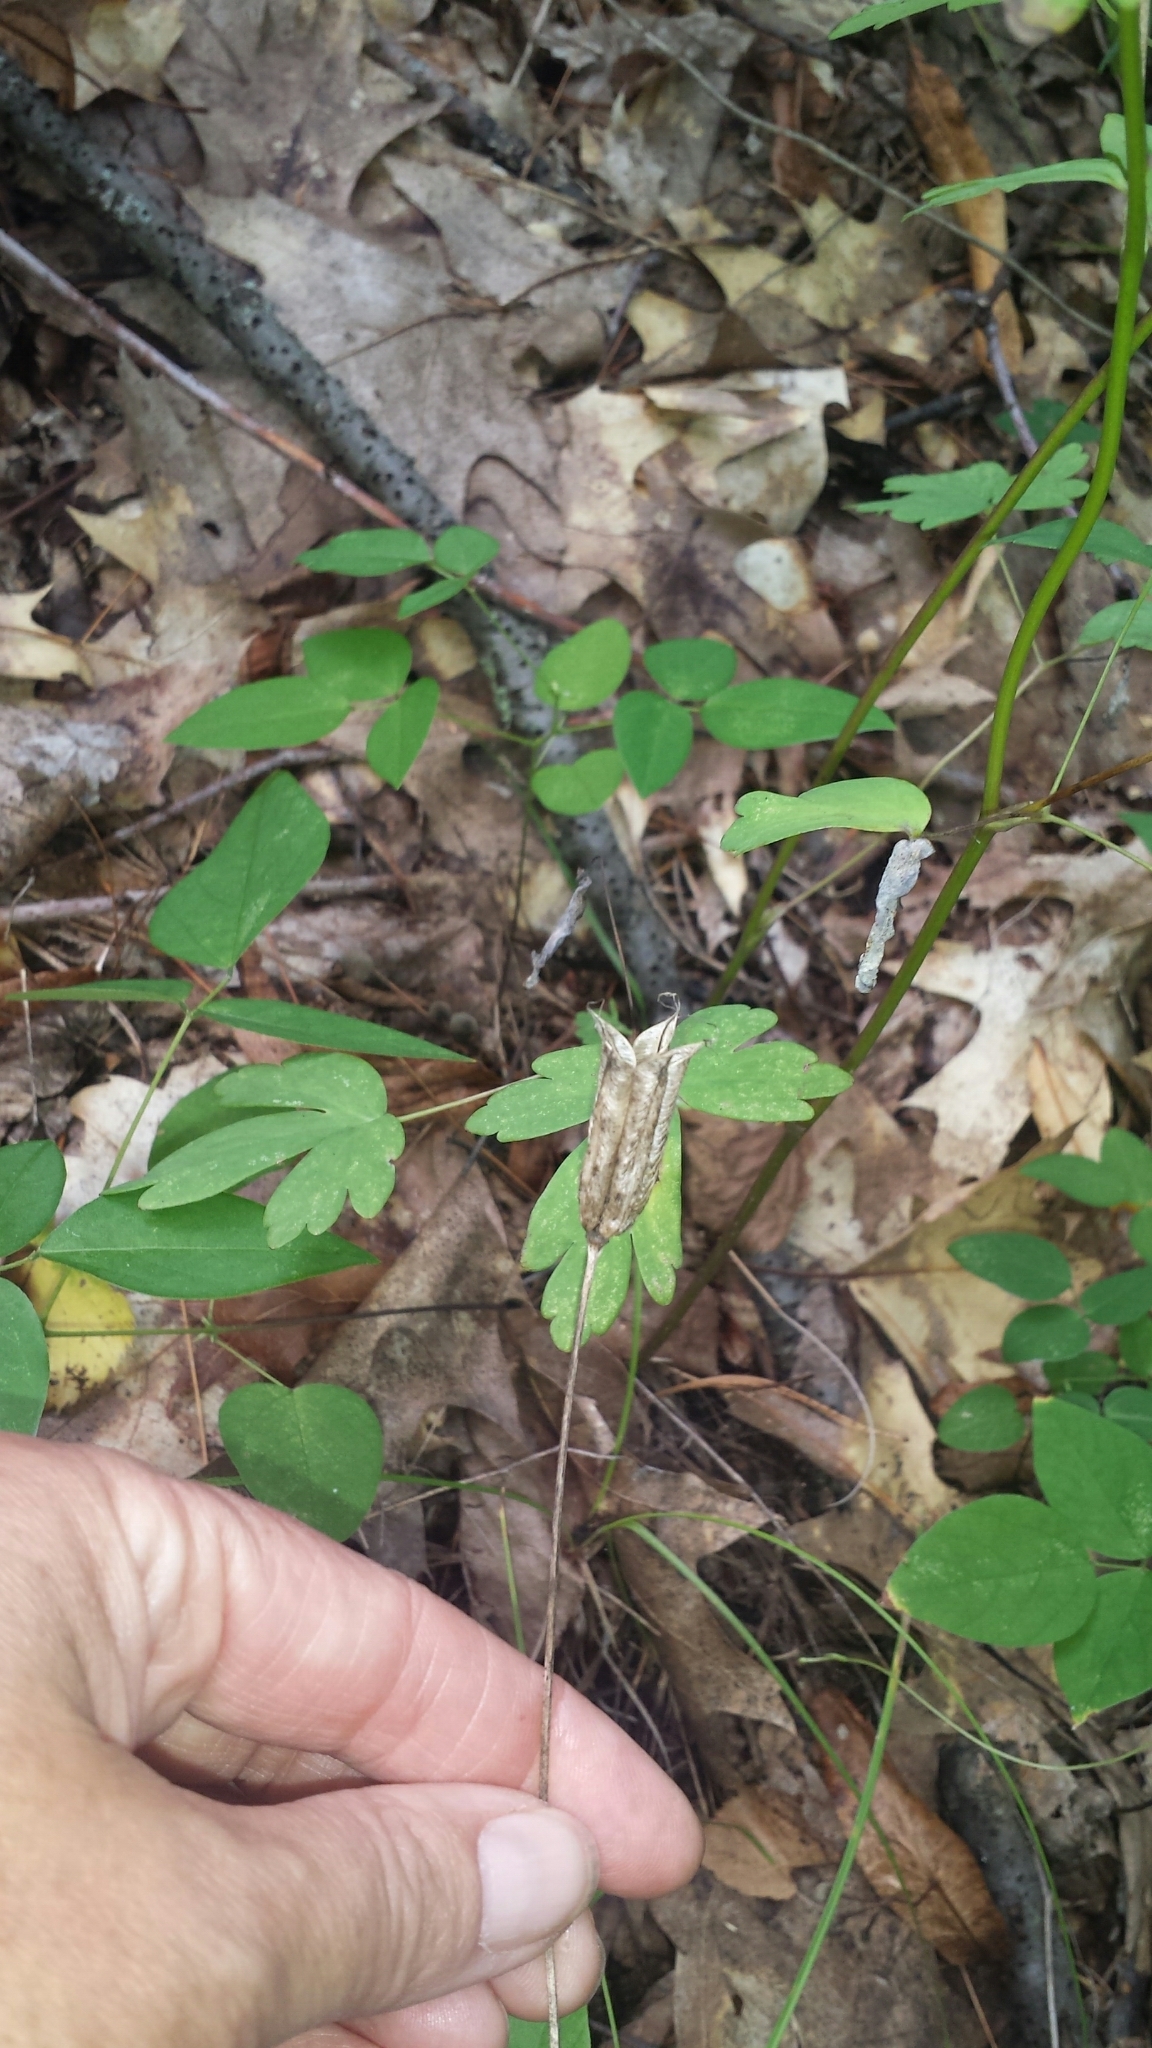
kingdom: Plantae
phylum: Tracheophyta
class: Magnoliopsida
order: Ranunculales
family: Ranunculaceae
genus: Aquilegia
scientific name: Aquilegia canadensis
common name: American columbine
